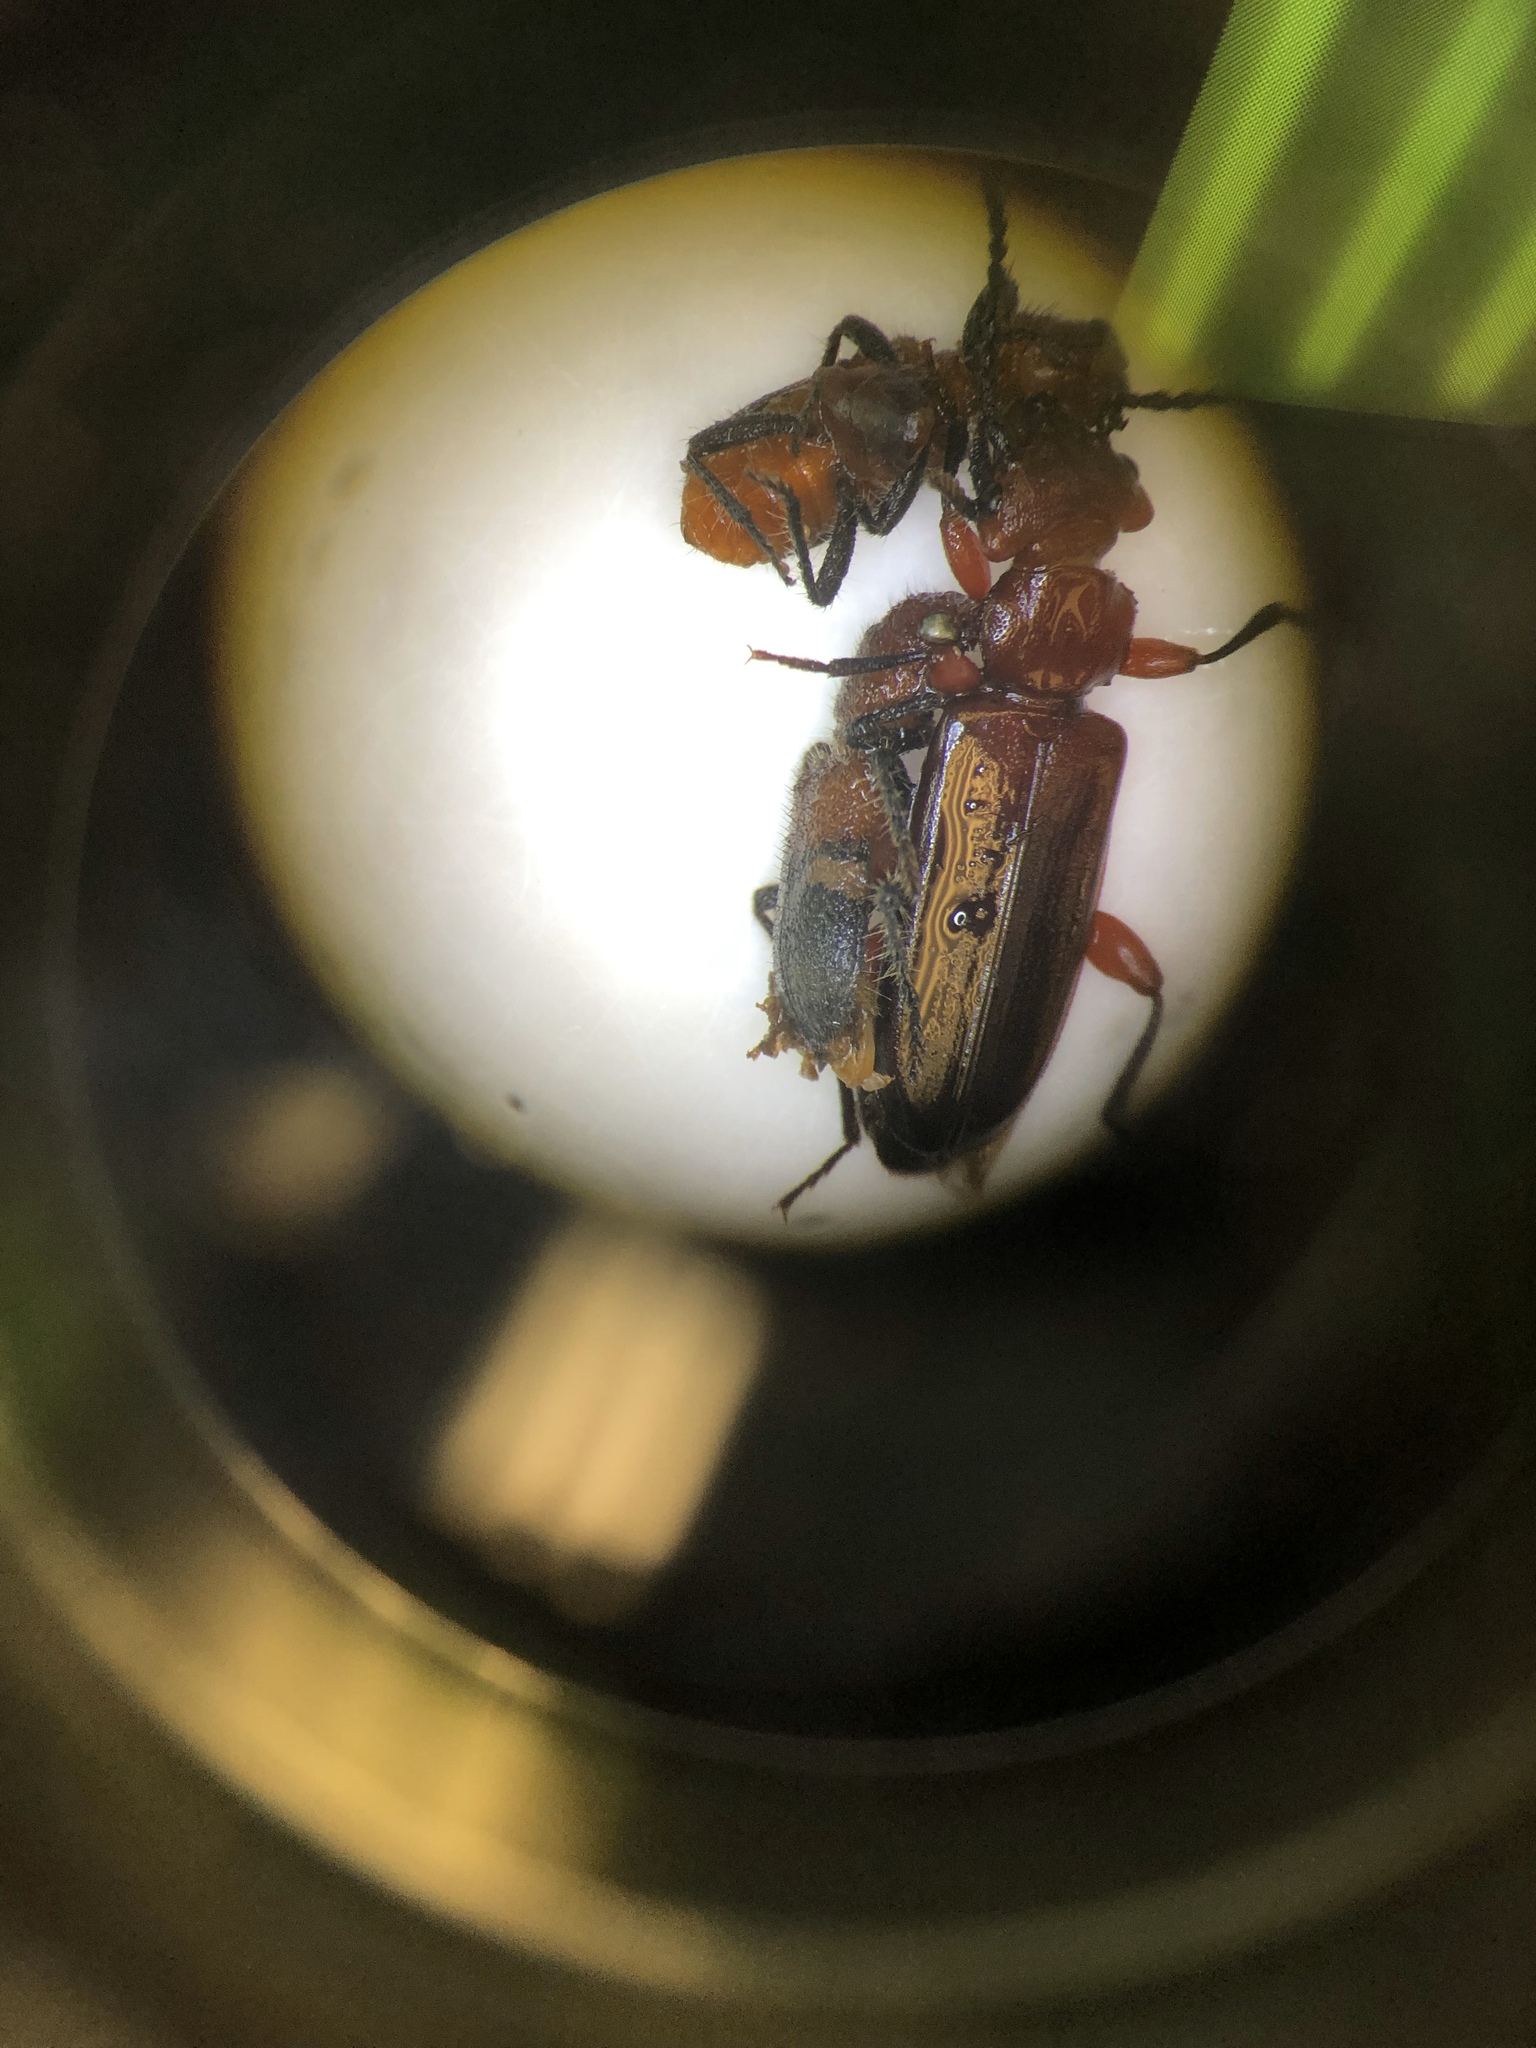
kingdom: Animalia
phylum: Arthropoda
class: Insecta
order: Coleoptera
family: Cucujidae
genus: Cucujus
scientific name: Cucujus clavipes
